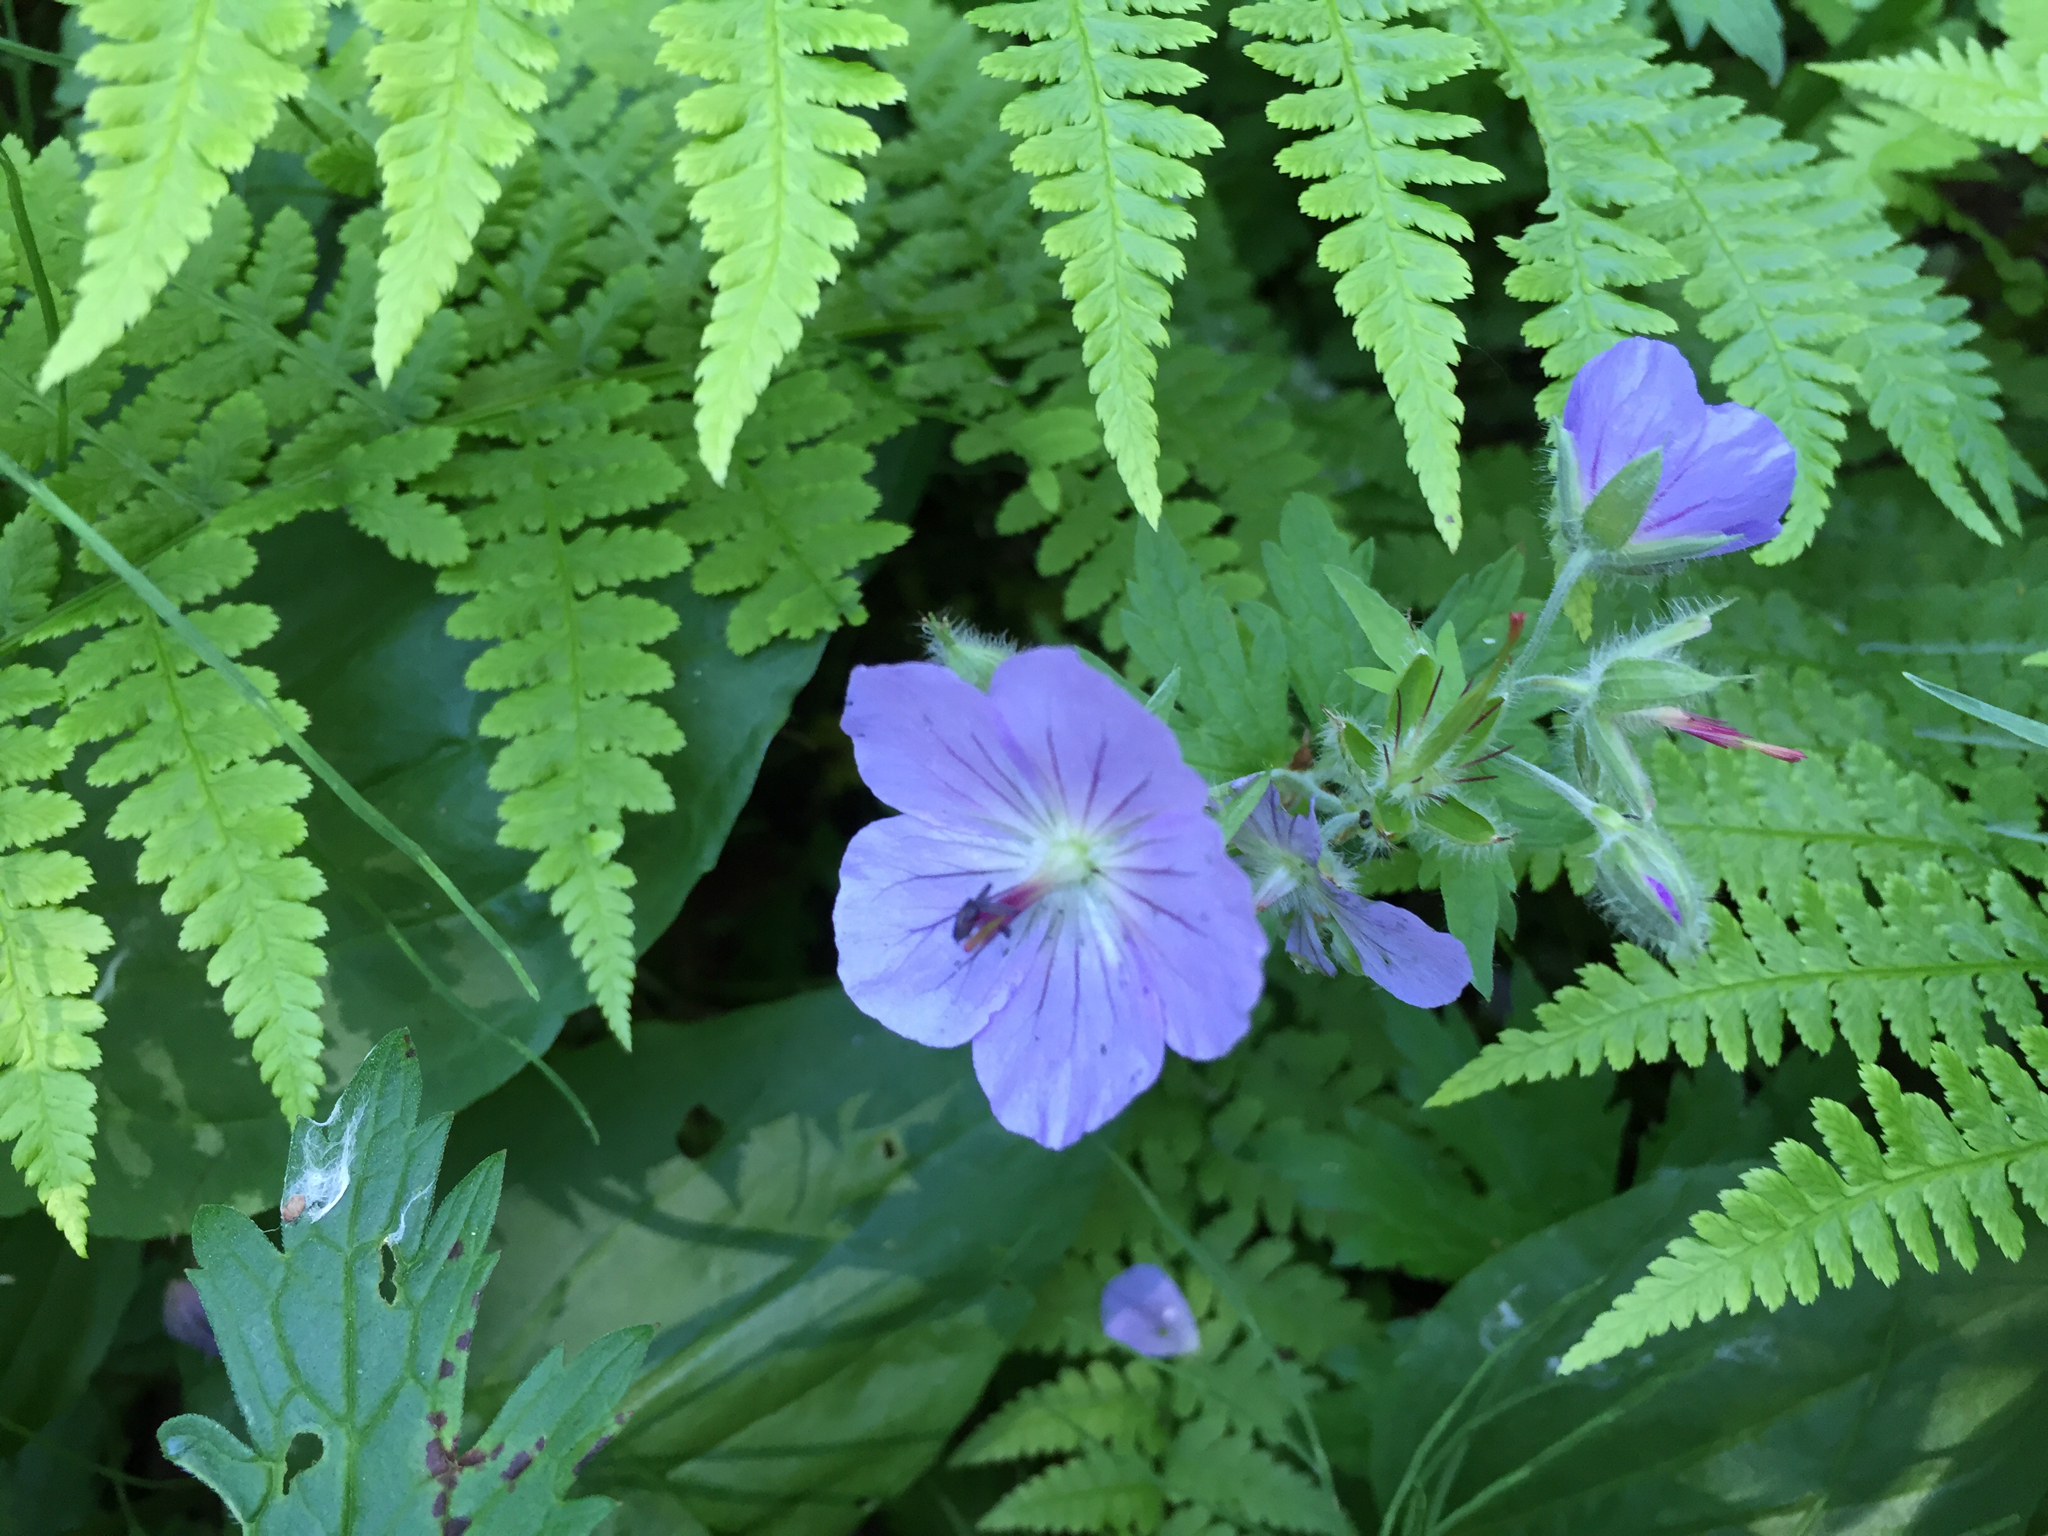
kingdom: Plantae
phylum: Tracheophyta
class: Magnoliopsida
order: Geraniales
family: Geraniaceae
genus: Geranium
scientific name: Geranium erianthum
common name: Northern crane's-bill
